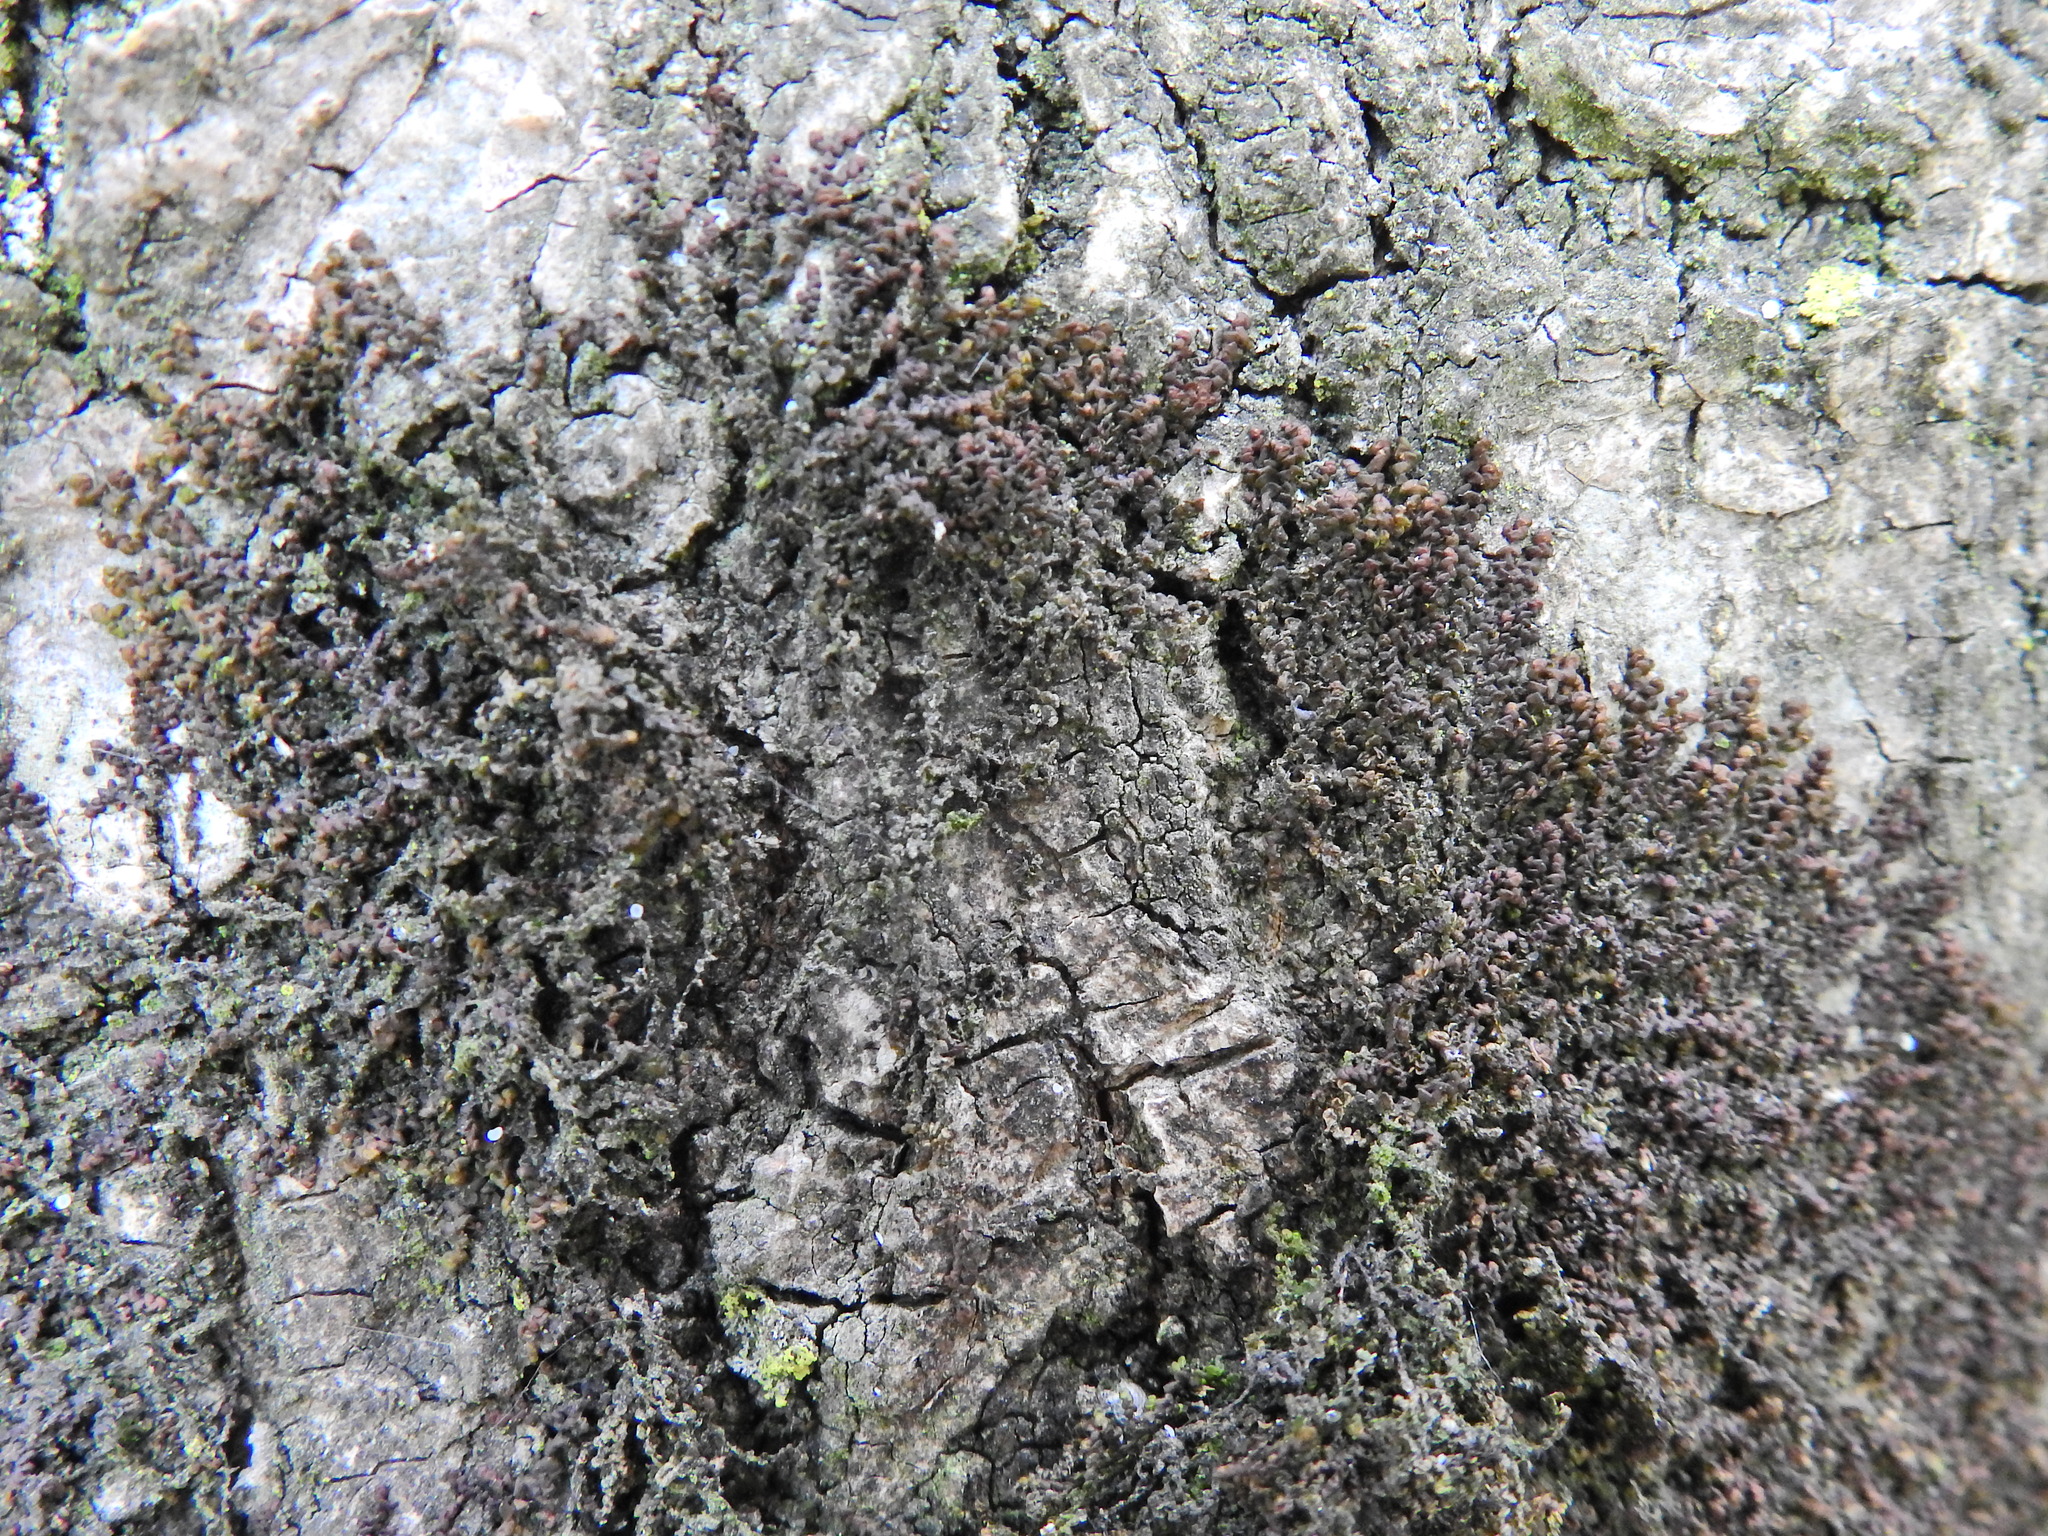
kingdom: Plantae
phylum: Marchantiophyta
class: Jungermanniopsida
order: Porellales
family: Frullaniaceae
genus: Frullania
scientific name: Frullania dilatata
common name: Dilated scalewort
